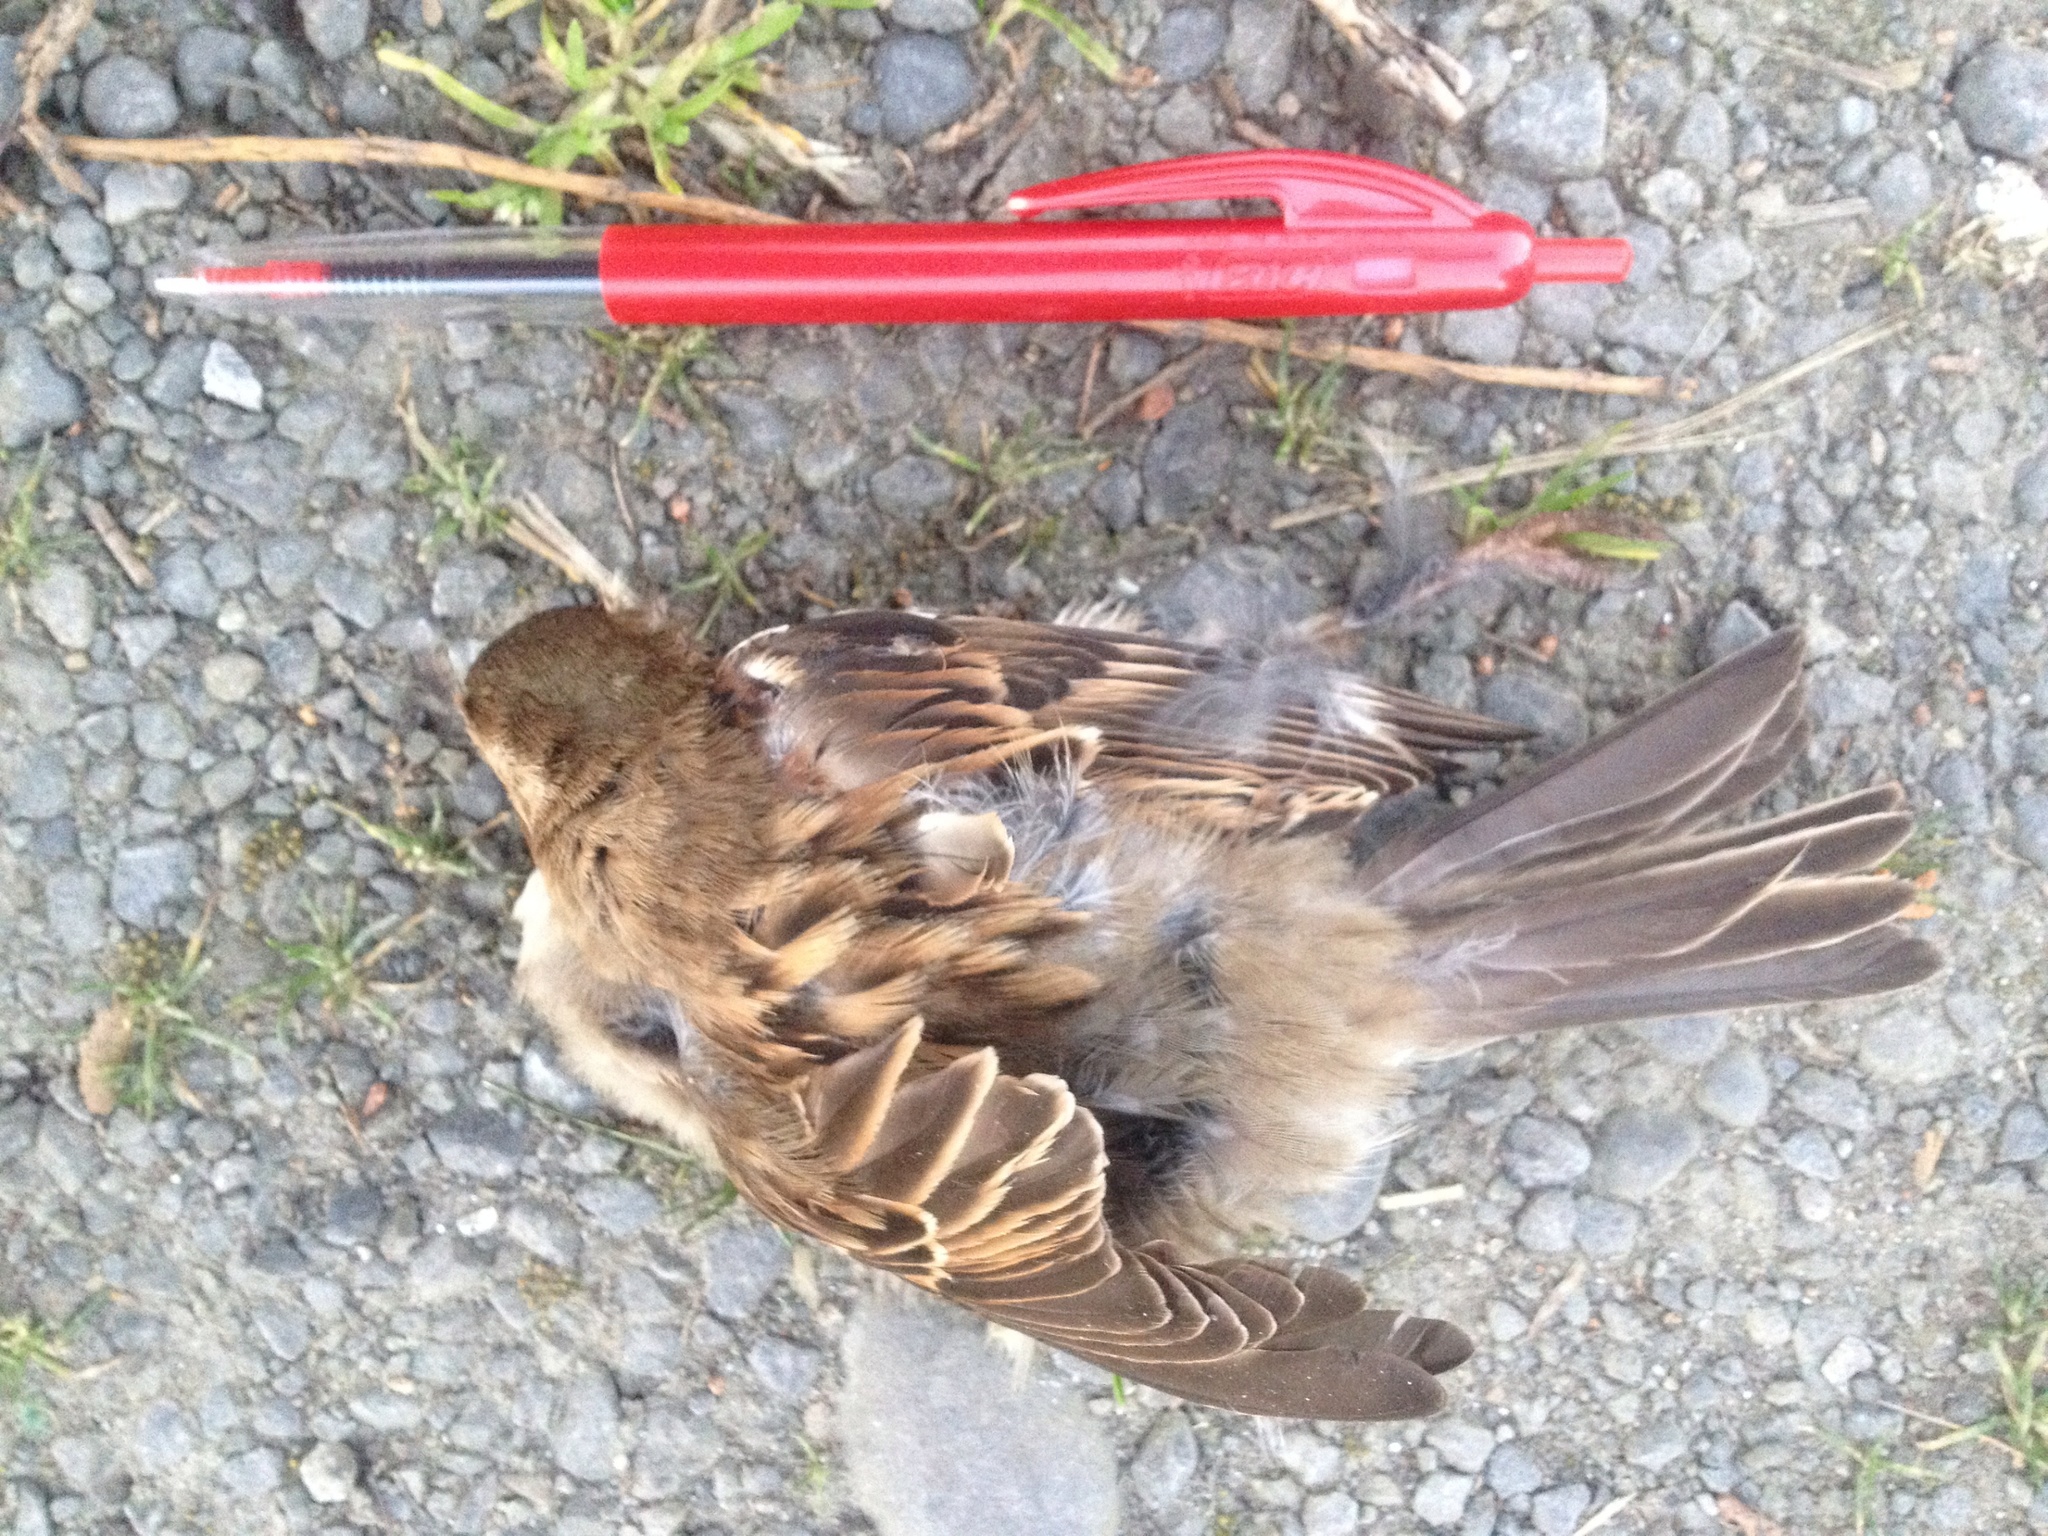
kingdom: Animalia
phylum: Chordata
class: Aves
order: Passeriformes
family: Passeridae
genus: Passer
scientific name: Passer domesticus
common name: House sparrow
